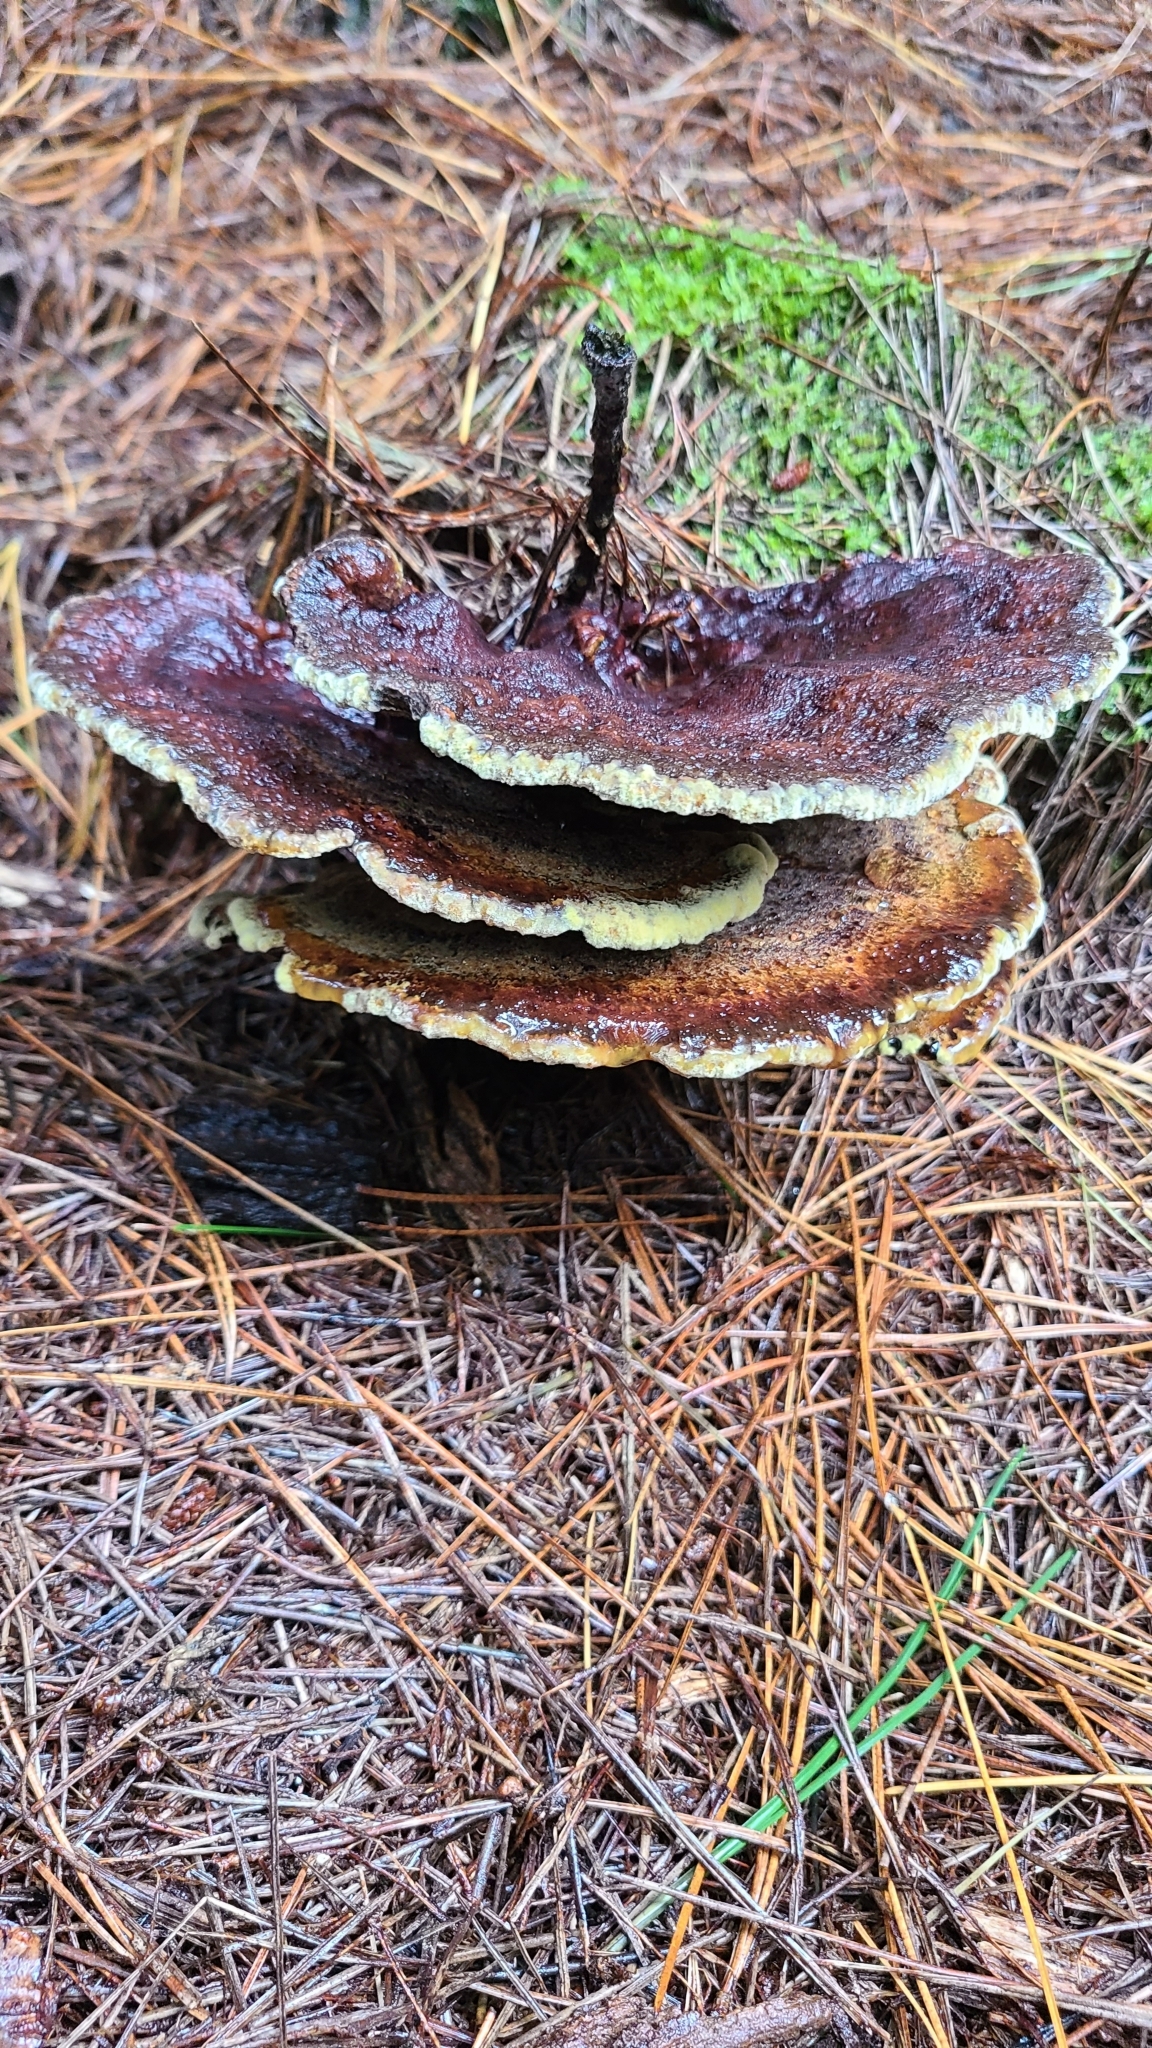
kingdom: Fungi
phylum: Basidiomycota
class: Agaricomycetes
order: Polyporales
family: Laetiporaceae
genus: Phaeolus
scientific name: Phaeolus schweinitzii
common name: Dyer's mazegill
